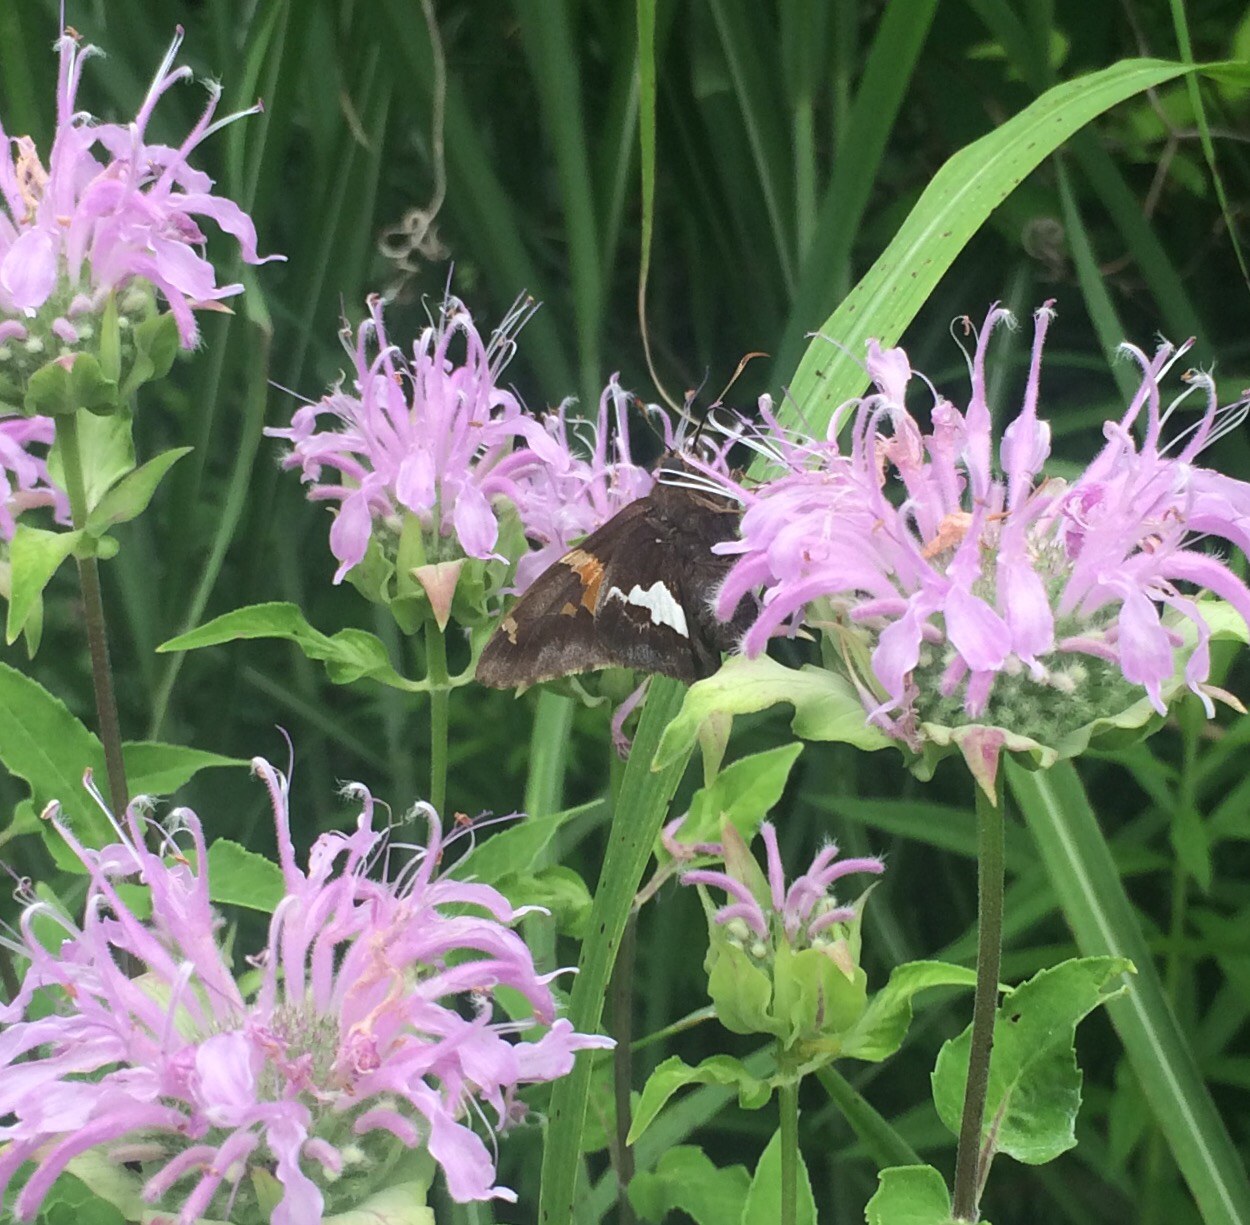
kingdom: Animalia
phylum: Arthropoda
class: Insecta
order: Lepidoptera
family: Hesperiidae
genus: Epargyreus
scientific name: Epargyreus clarus
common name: Silver-spotted skipper
